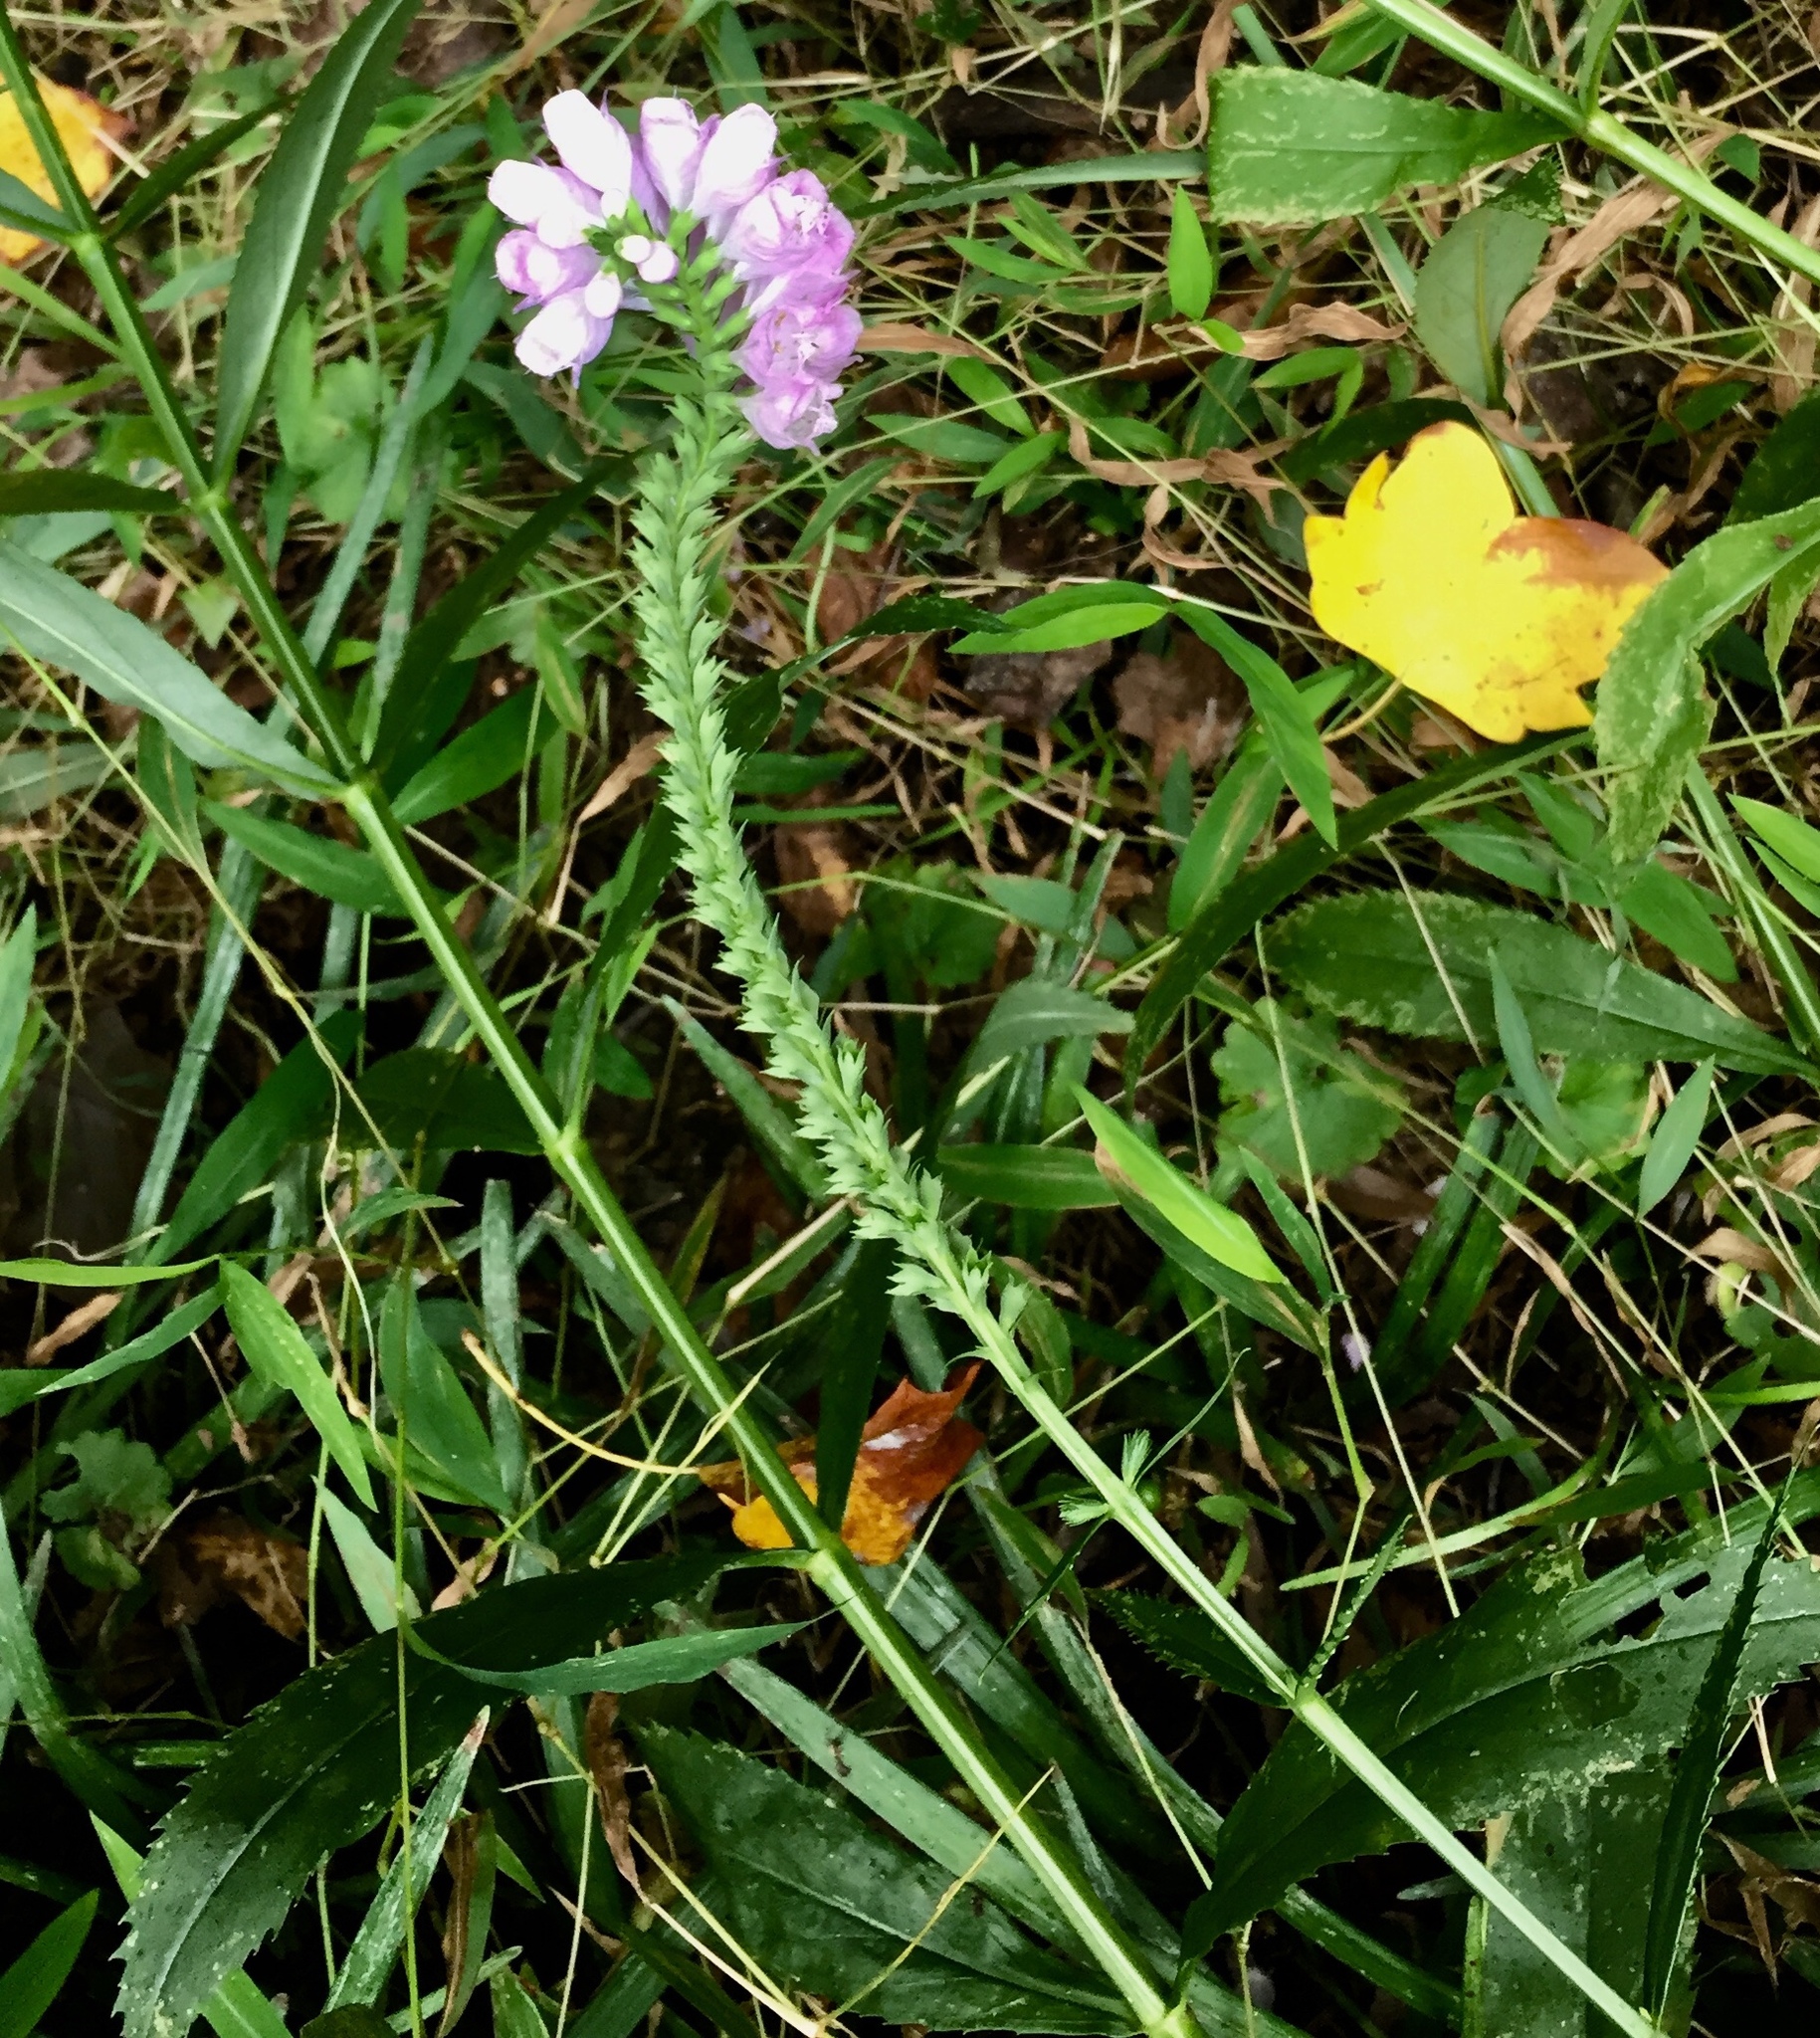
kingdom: Plantae
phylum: Tracheophyta
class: Magnoliopsida
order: Lamiales
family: Lamiaceae
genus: Physostegia
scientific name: Physostegia virginiana
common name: Obedient-plant
